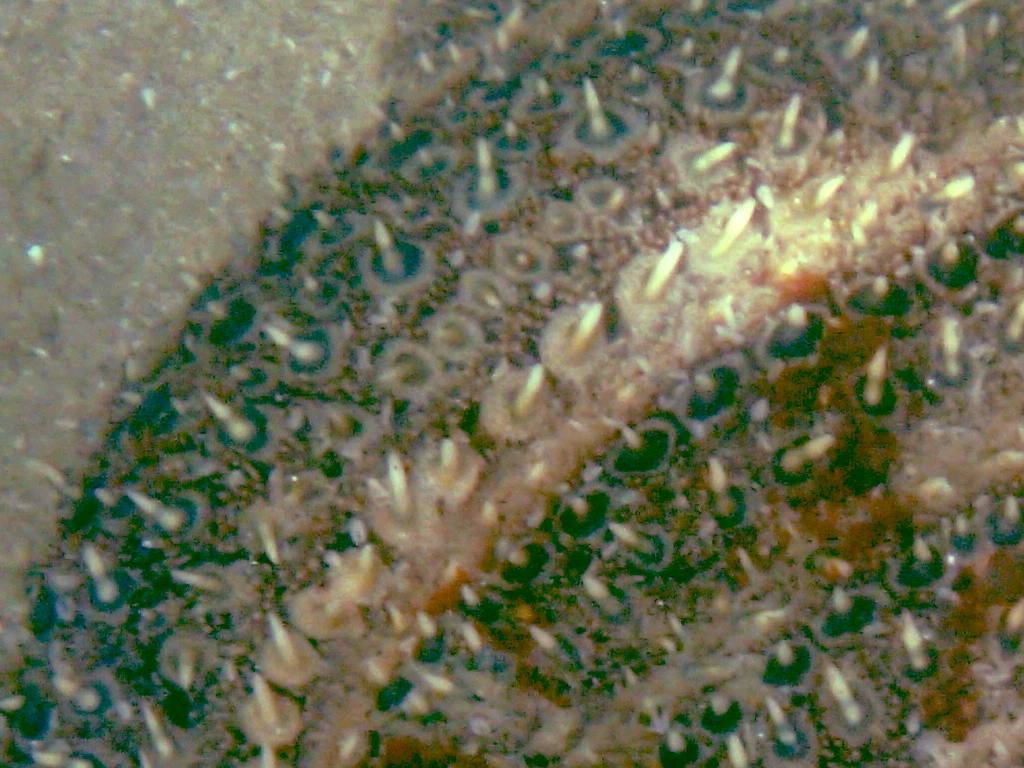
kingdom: Animalia
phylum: Echinodermata
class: Asteroidea
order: Forcipulatida
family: Asteriidae
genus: Coscinasterias
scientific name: Coscinasterias muricata
